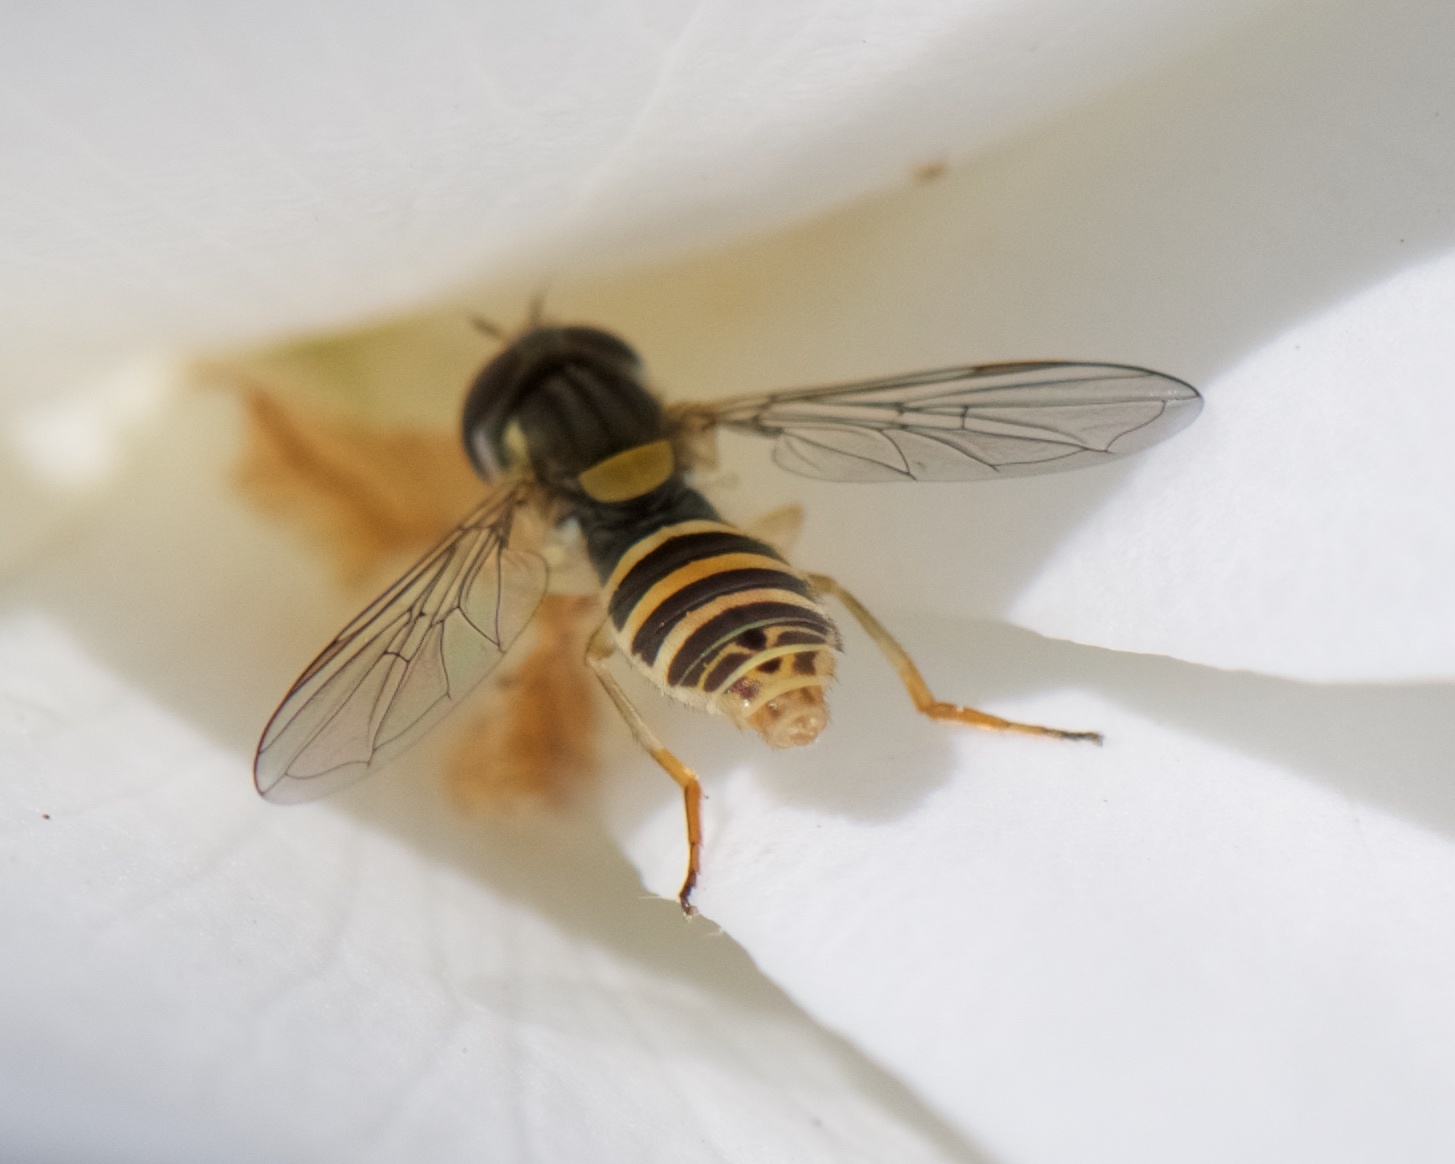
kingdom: Animalia
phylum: Arthropoda
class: Insecta
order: Diptera
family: Syrphidae
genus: Sphaerophoria
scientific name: Sphaerophoria
